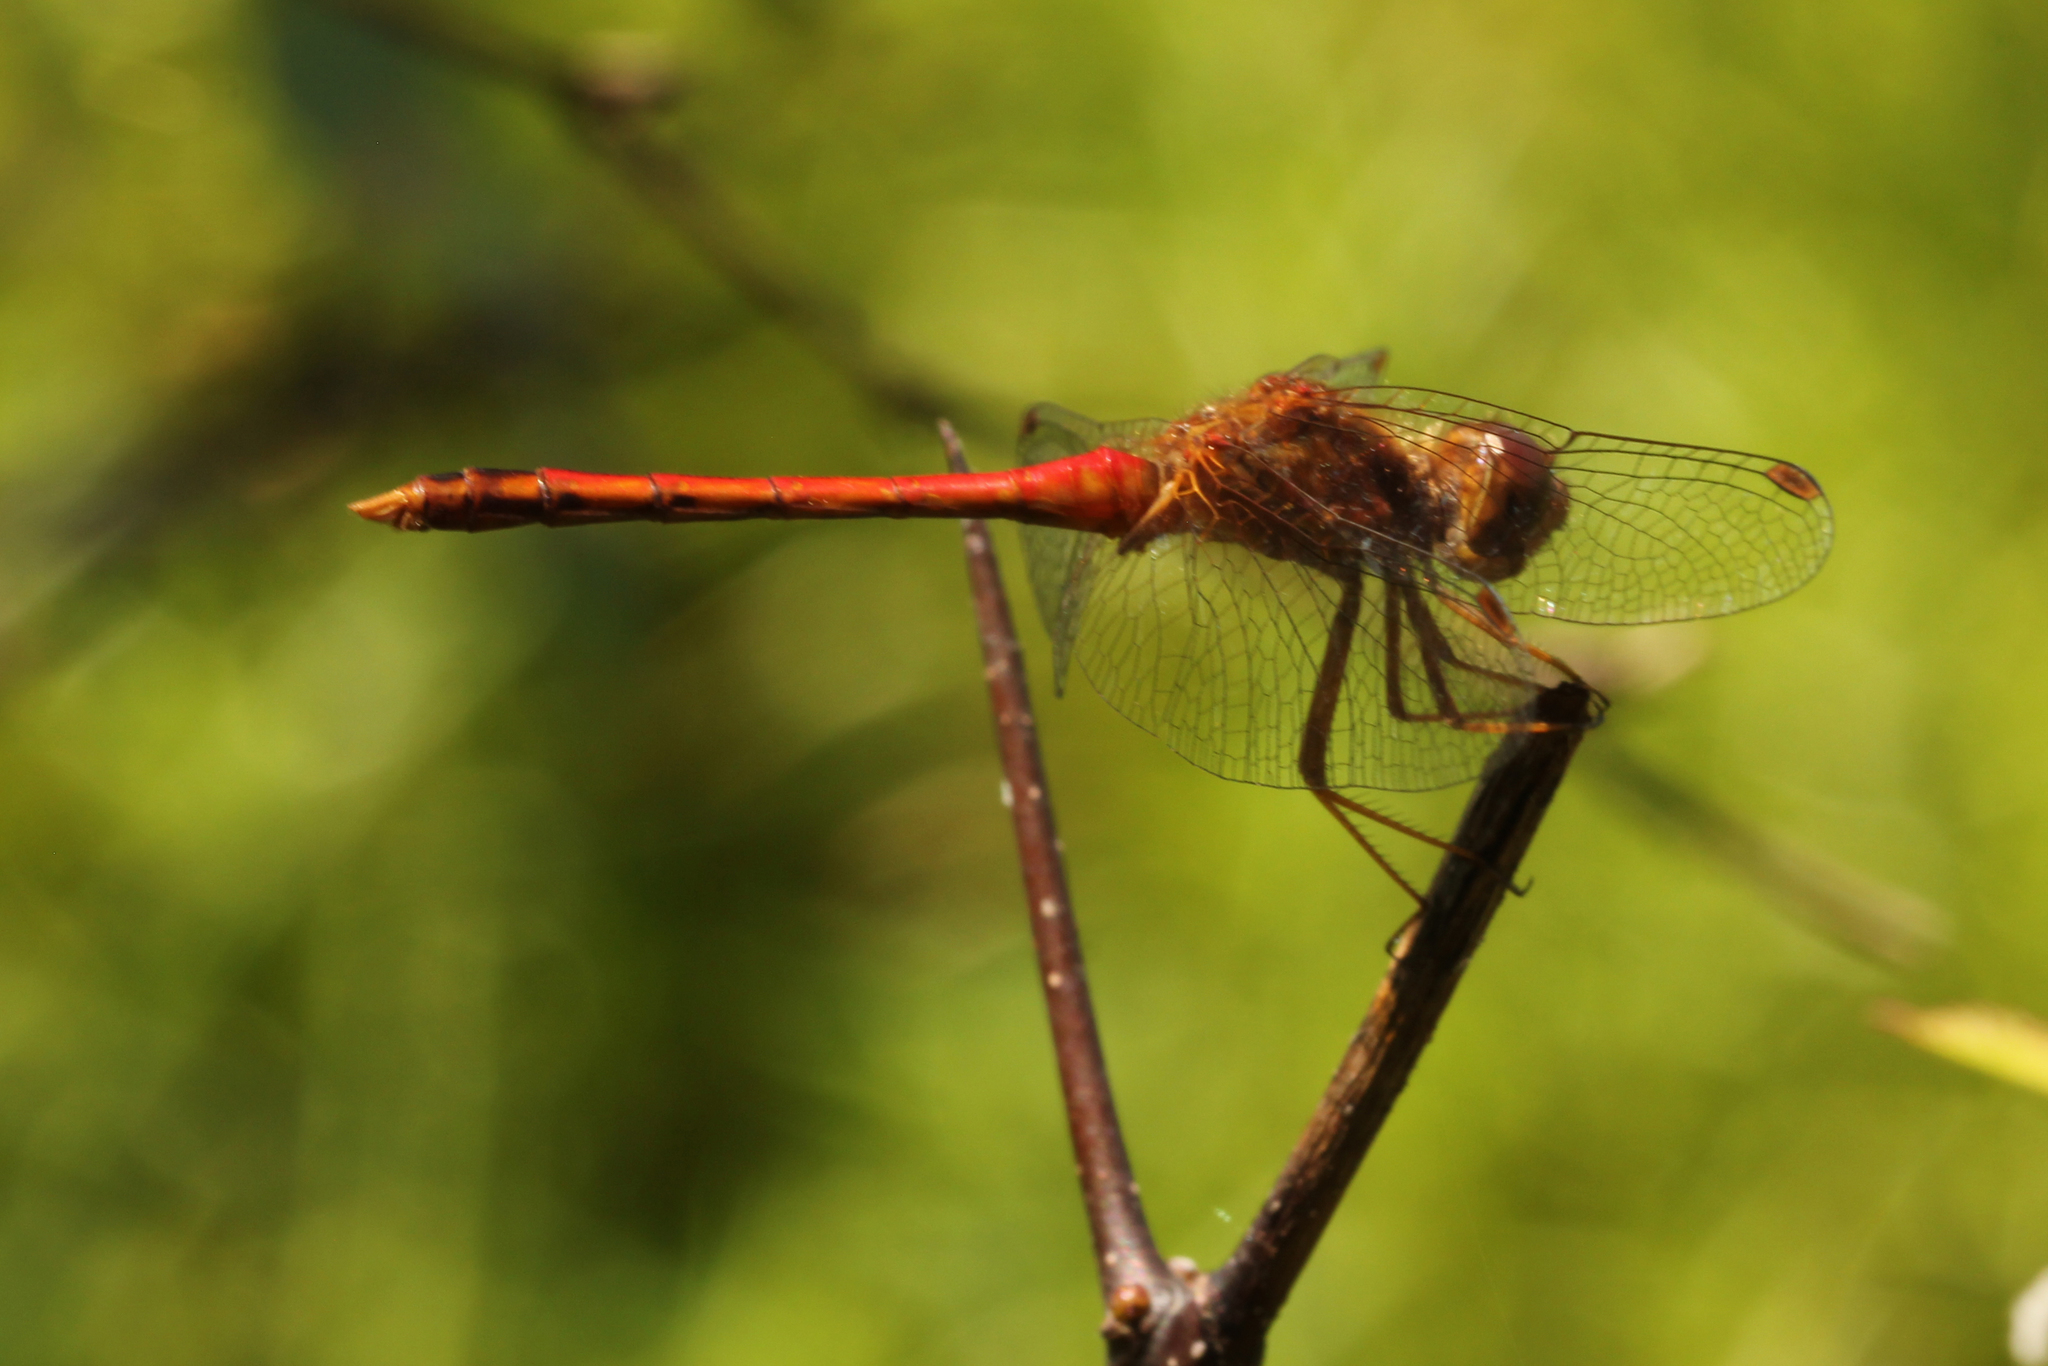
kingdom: Animalia
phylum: Arthropoda
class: Insecta
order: Odonata
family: Libellulidae
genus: Sympetrum
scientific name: Sympetrum vicinum
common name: Autumn meadowhawk
